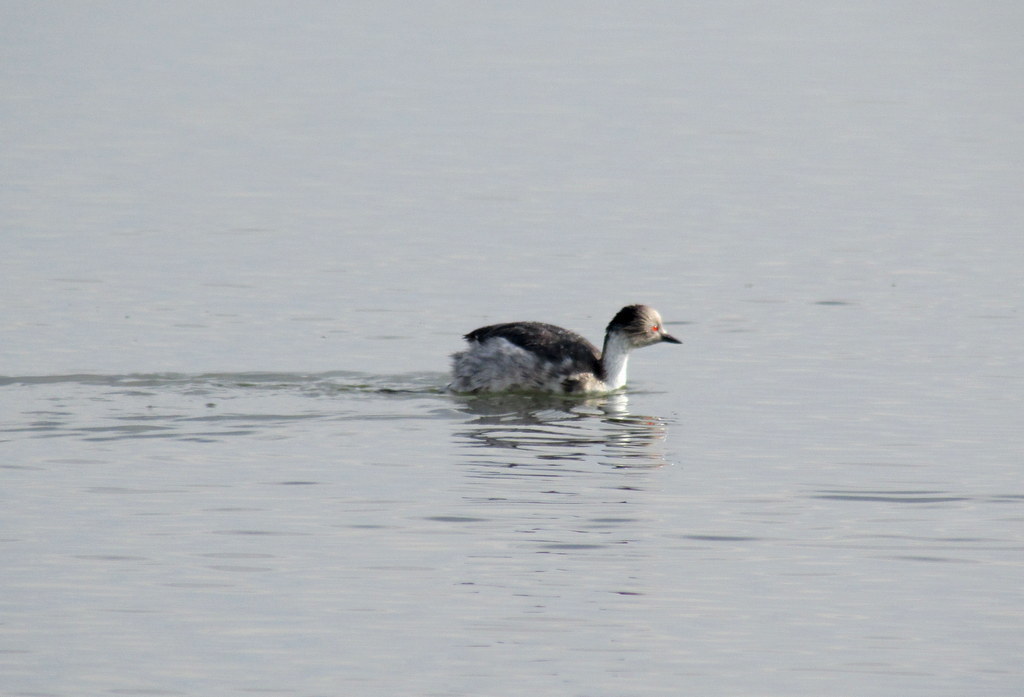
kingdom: Animalia
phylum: Chordata
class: Aves
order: Podicipediformes
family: Podicipedidae
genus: Podiceps
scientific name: Podiceps occipitalis
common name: Silvery grebe
